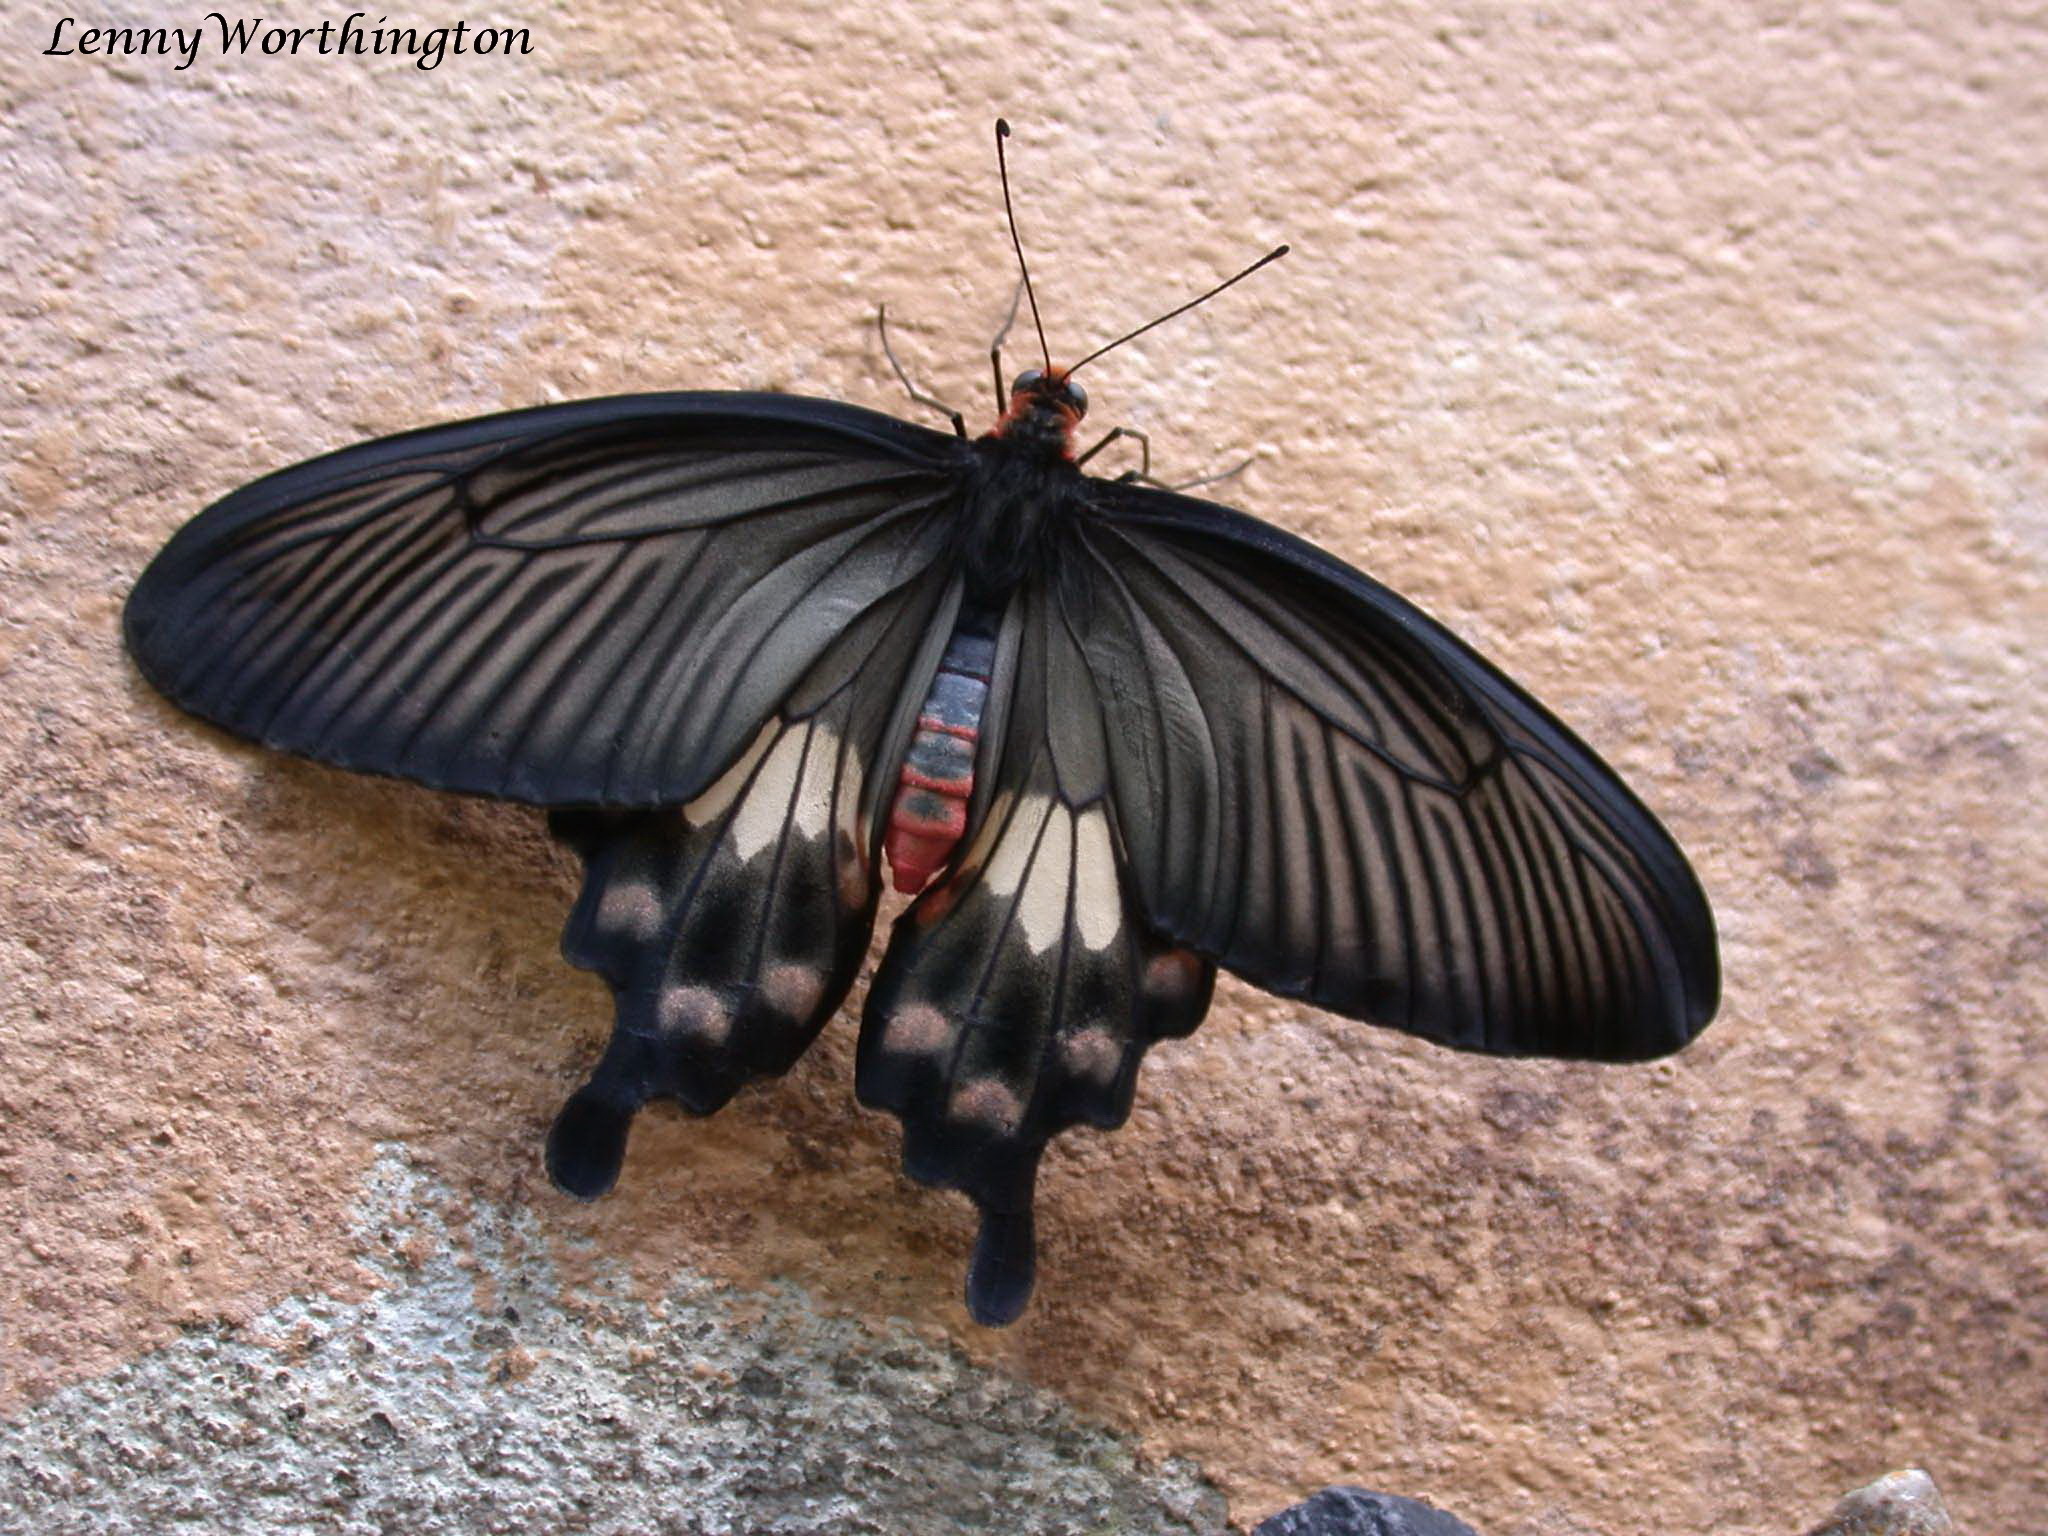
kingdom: Animalia
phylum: Arthropoda
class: Insecta
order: Lepidoptera
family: Papilionidae
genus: Pachliopta
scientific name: Pachliopta aristolochiae
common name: Common rose
